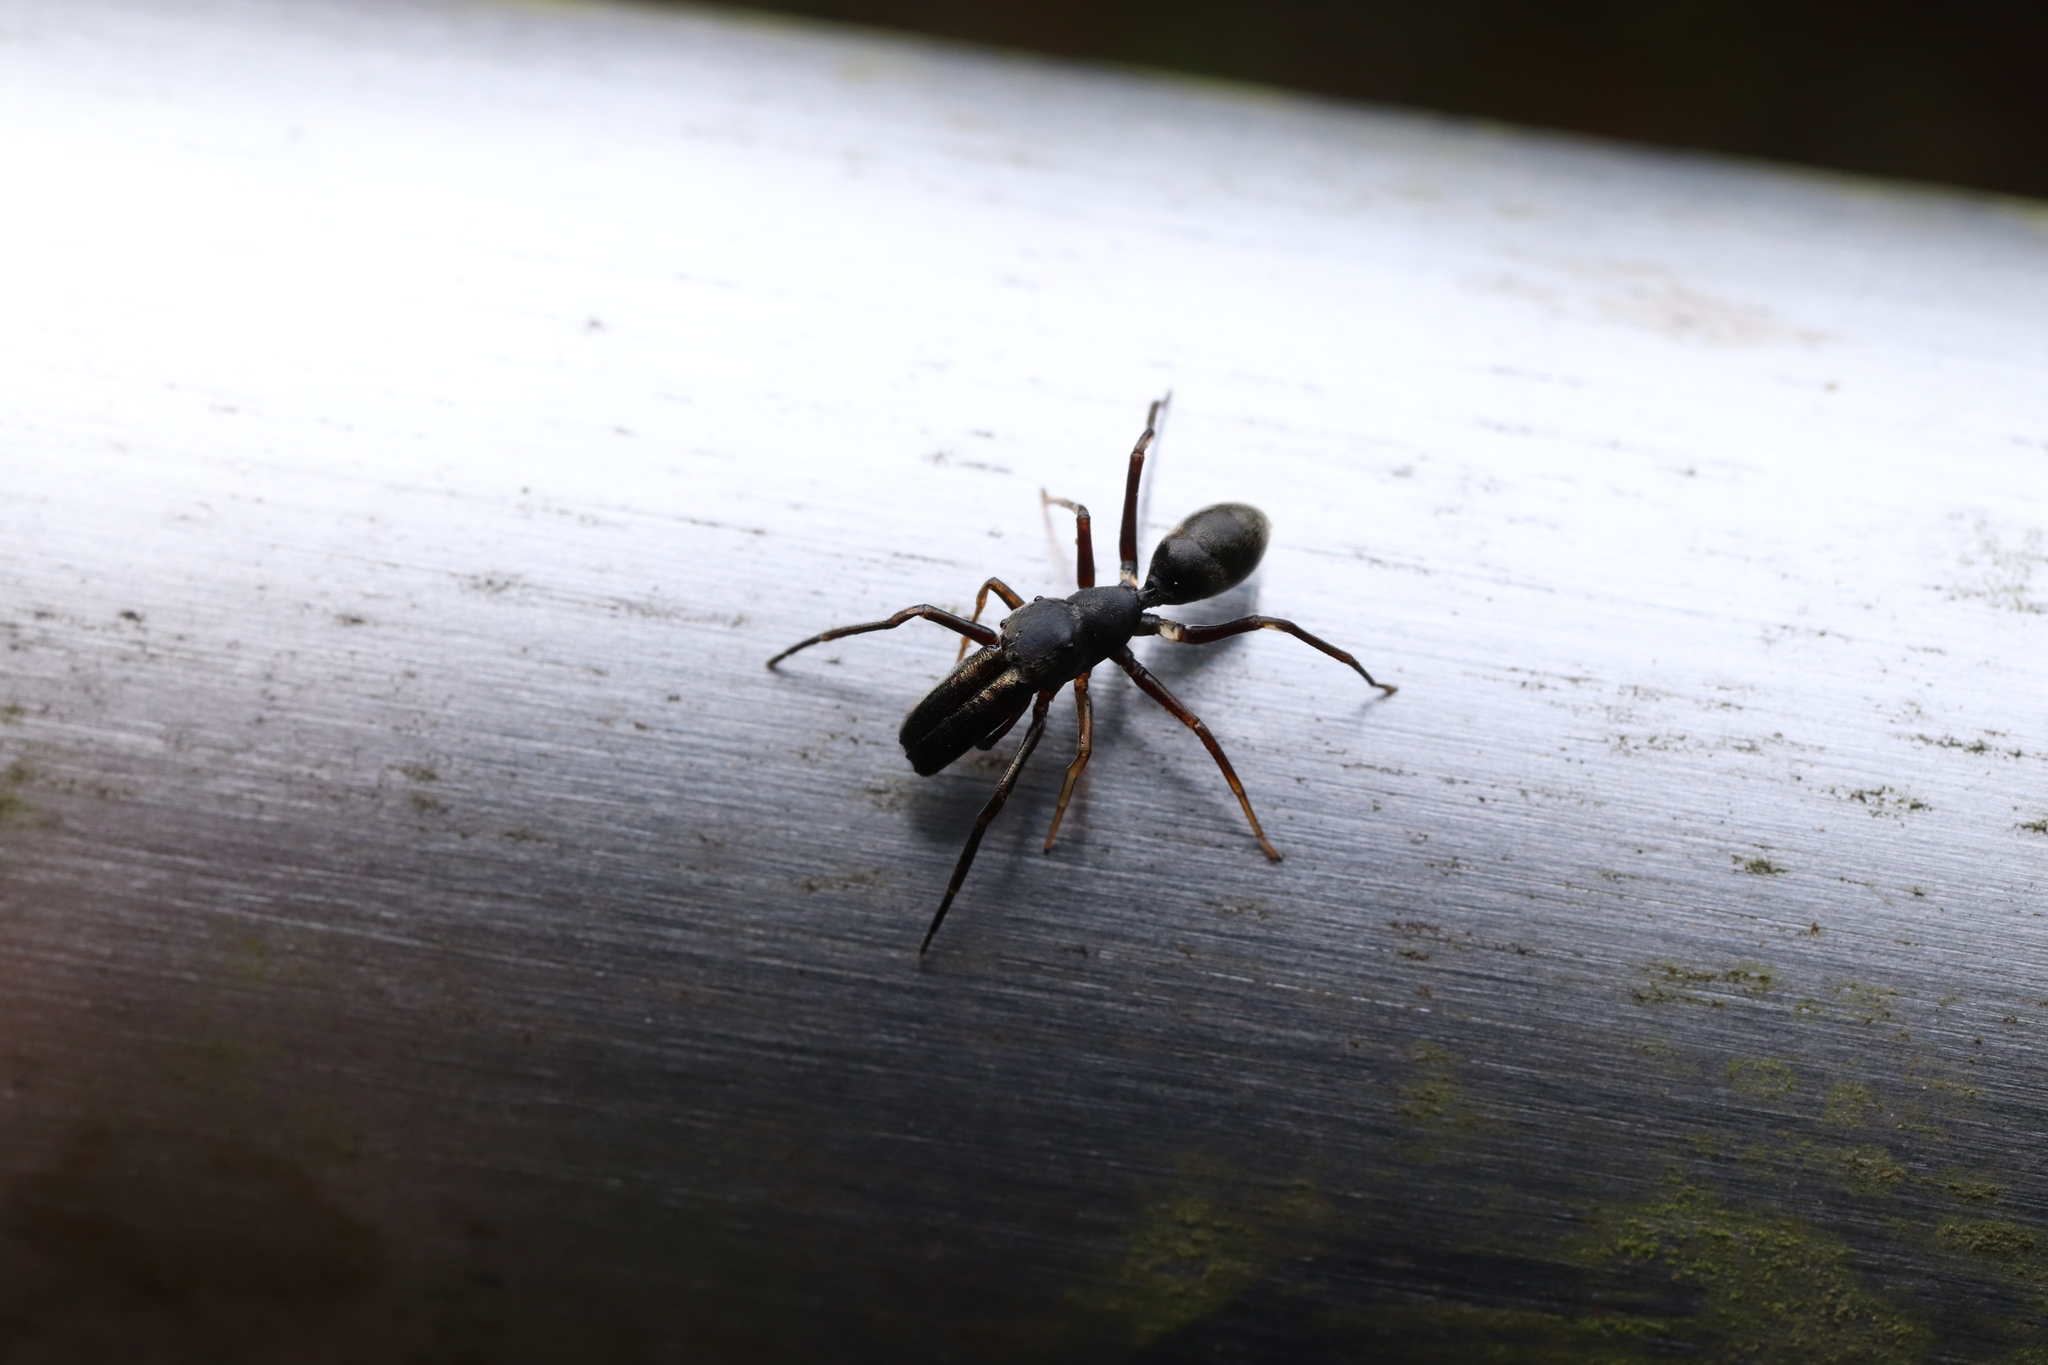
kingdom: Animalia
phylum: Arthropoda
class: Arachnida
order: Araneae
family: Salticidae
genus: Myrmarachne
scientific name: Myrmarachne japonica
